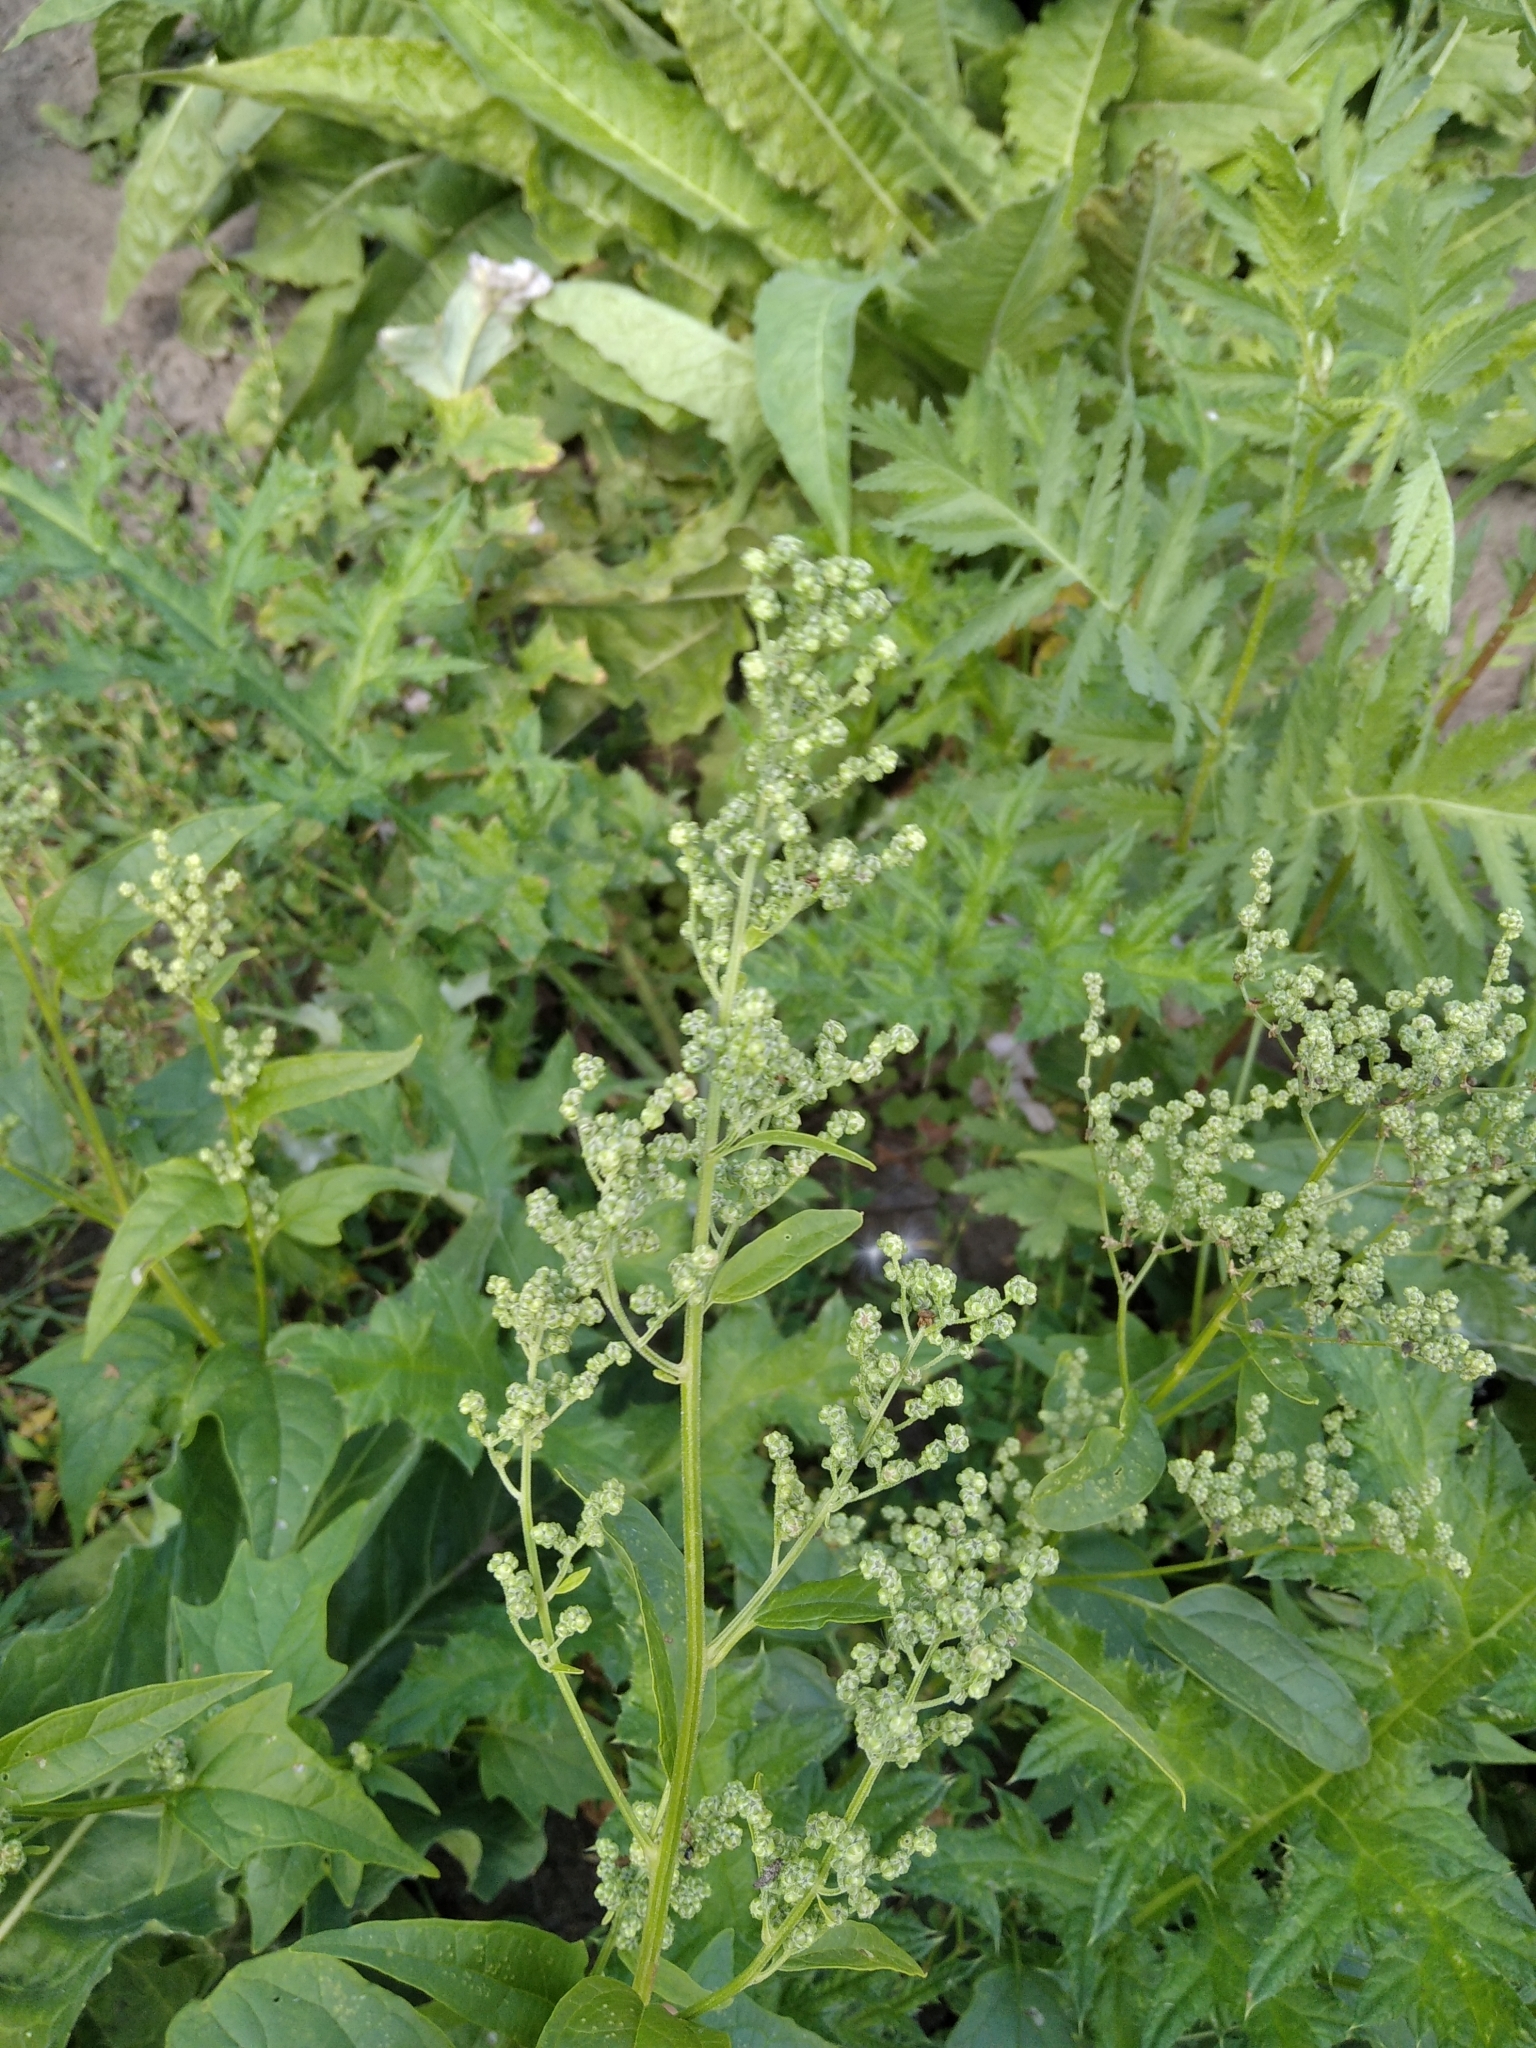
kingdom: Plantae
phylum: Tracheophyta
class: Magnoliopsida
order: Caryophyllales
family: Amaranthaceae
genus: Chenopodiastrum
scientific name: Chenopodiastrum hybridum
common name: Mapleleaf goosefoot
